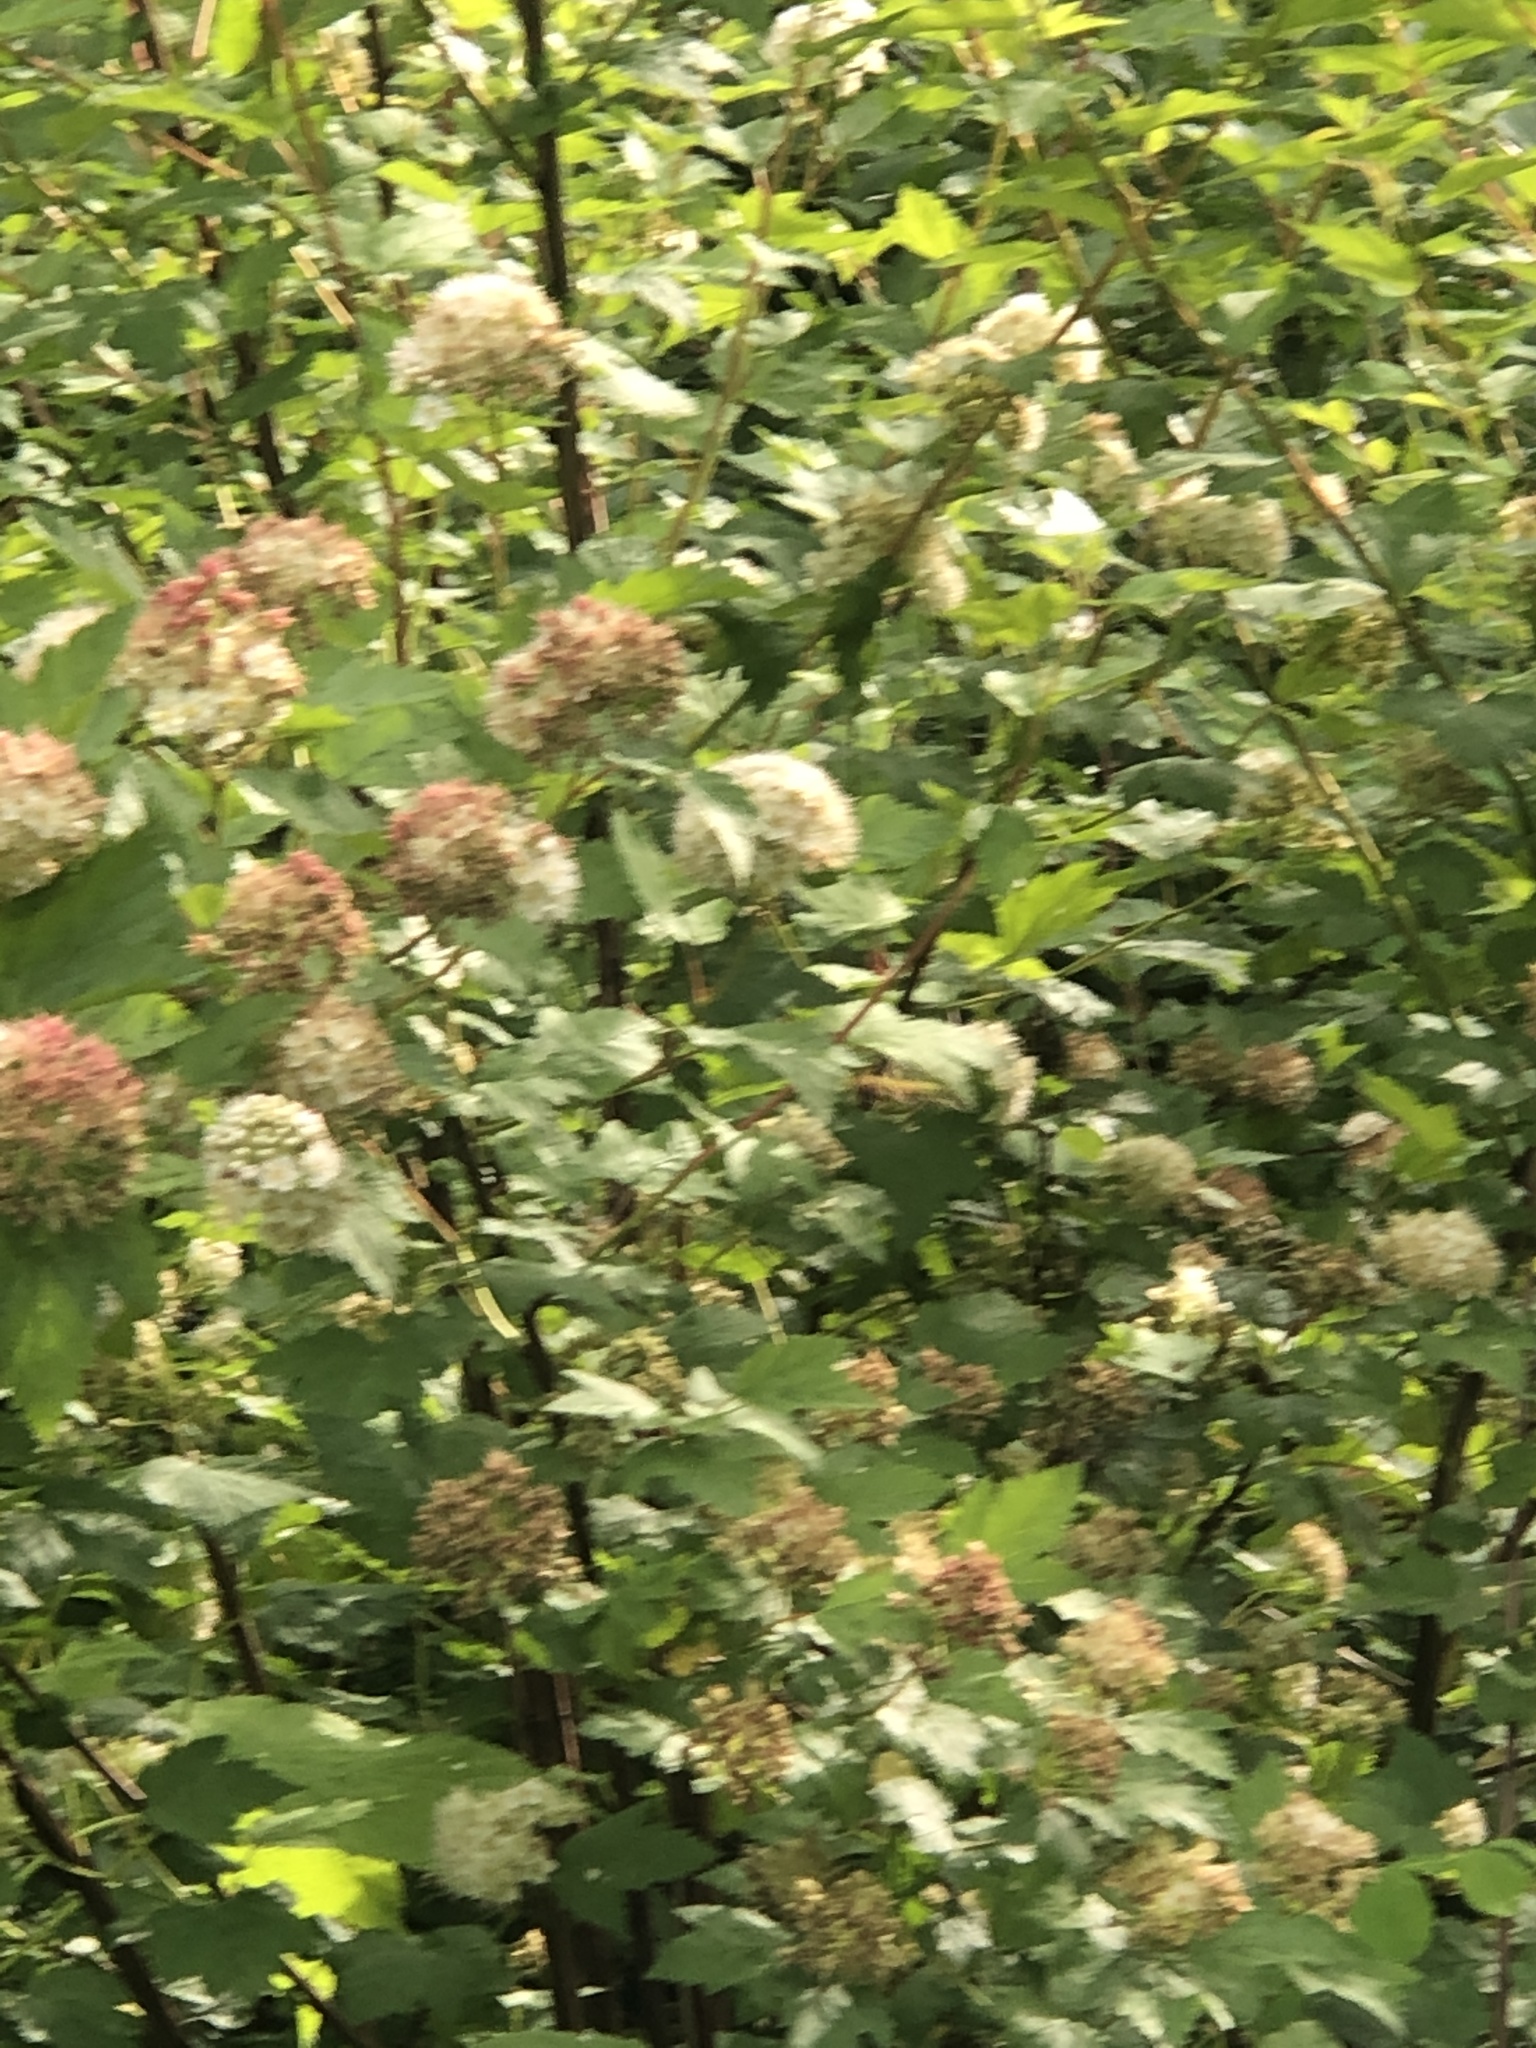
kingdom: Plantae
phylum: Tracheophyta
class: Magnoliopsida
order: Rosales
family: Rosaceae
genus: Physocarpus
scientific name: Physocarpus capitatus
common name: Pacific ninebark
